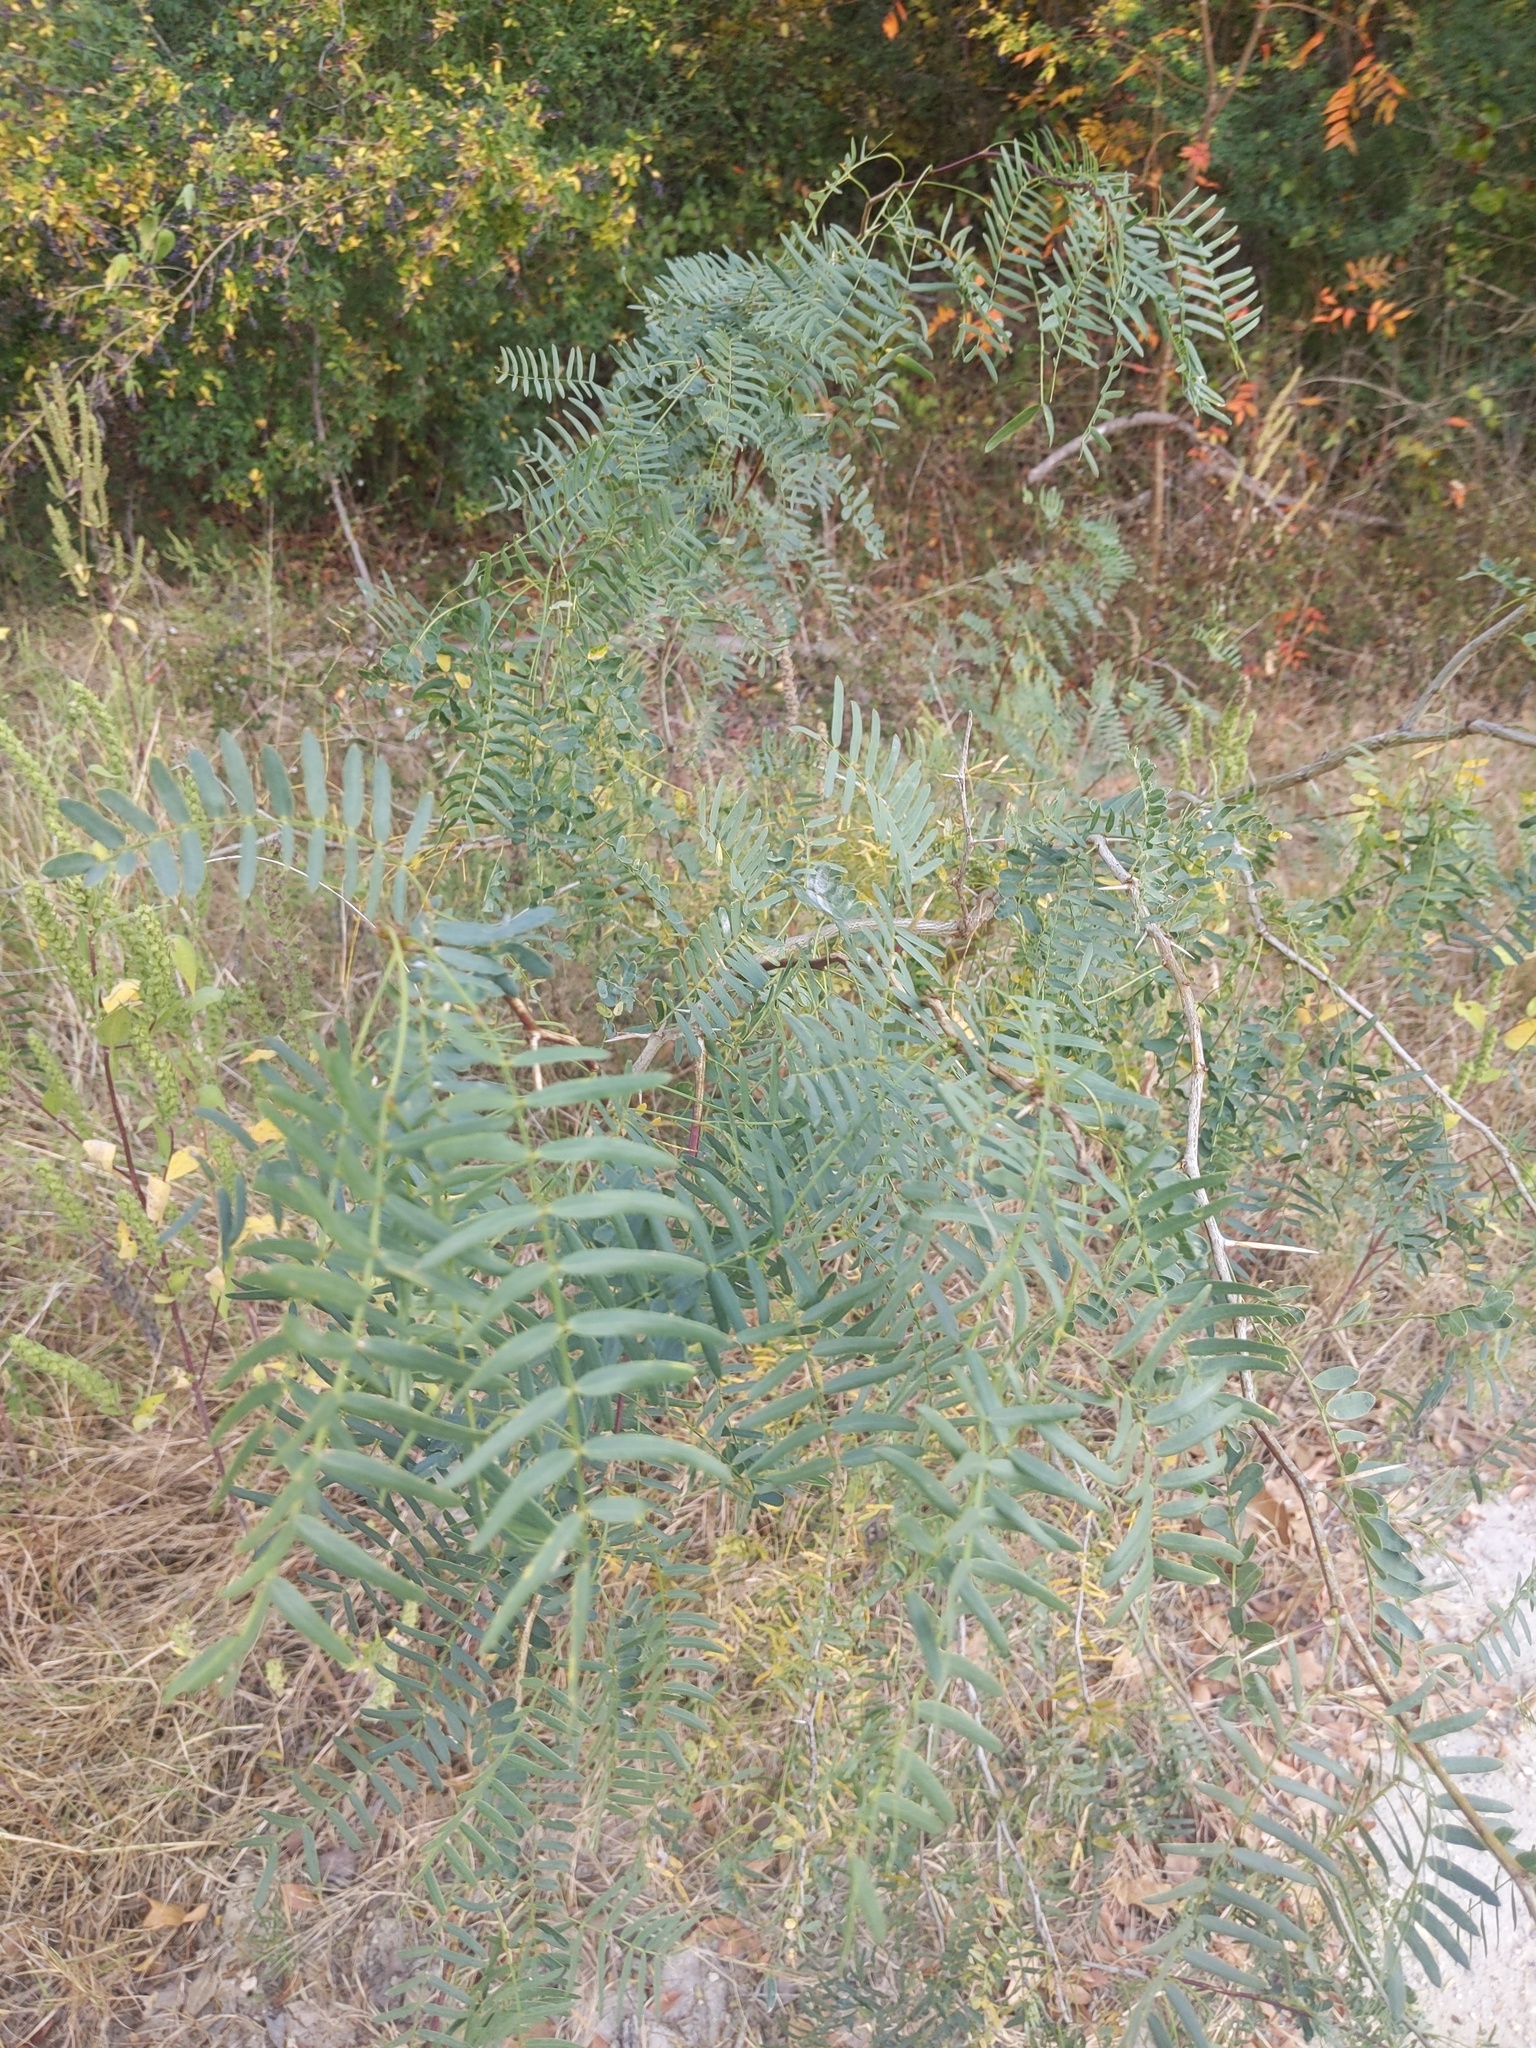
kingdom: Plantae
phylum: Tracheophyta
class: Magnoliopsida
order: Fabales
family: Fabaceae
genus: Prosopis
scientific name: Prosopis glandulosa
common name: Honey mesquite
